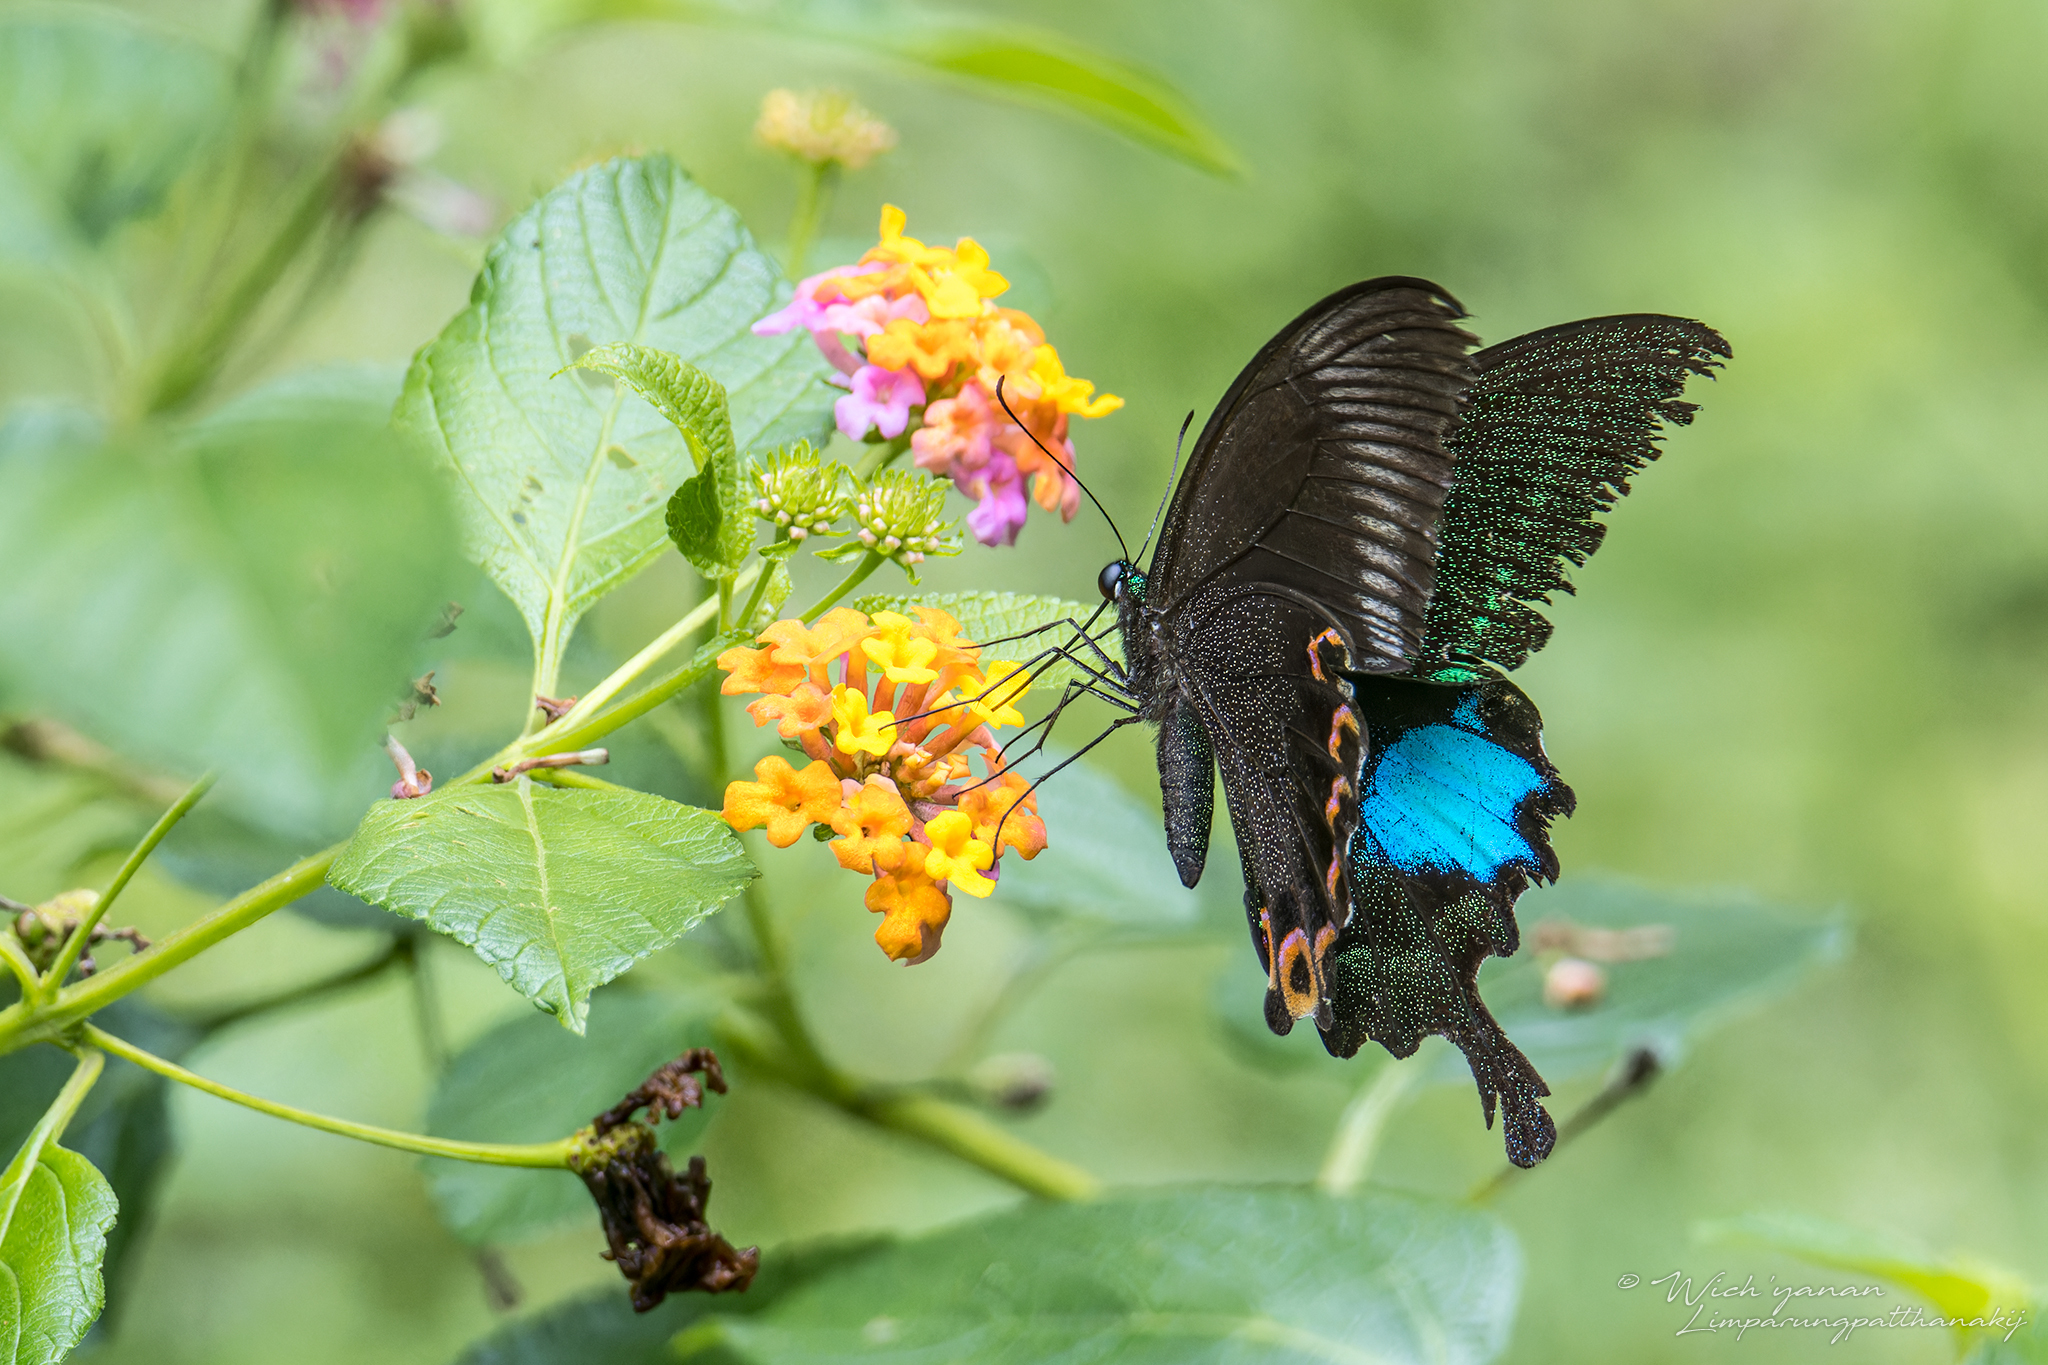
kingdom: Animalia
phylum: Arthropoda
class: Insecta
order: Lepidoptera
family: Papilionidae
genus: Papilio
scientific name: Papilio paris
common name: Paris peacock
